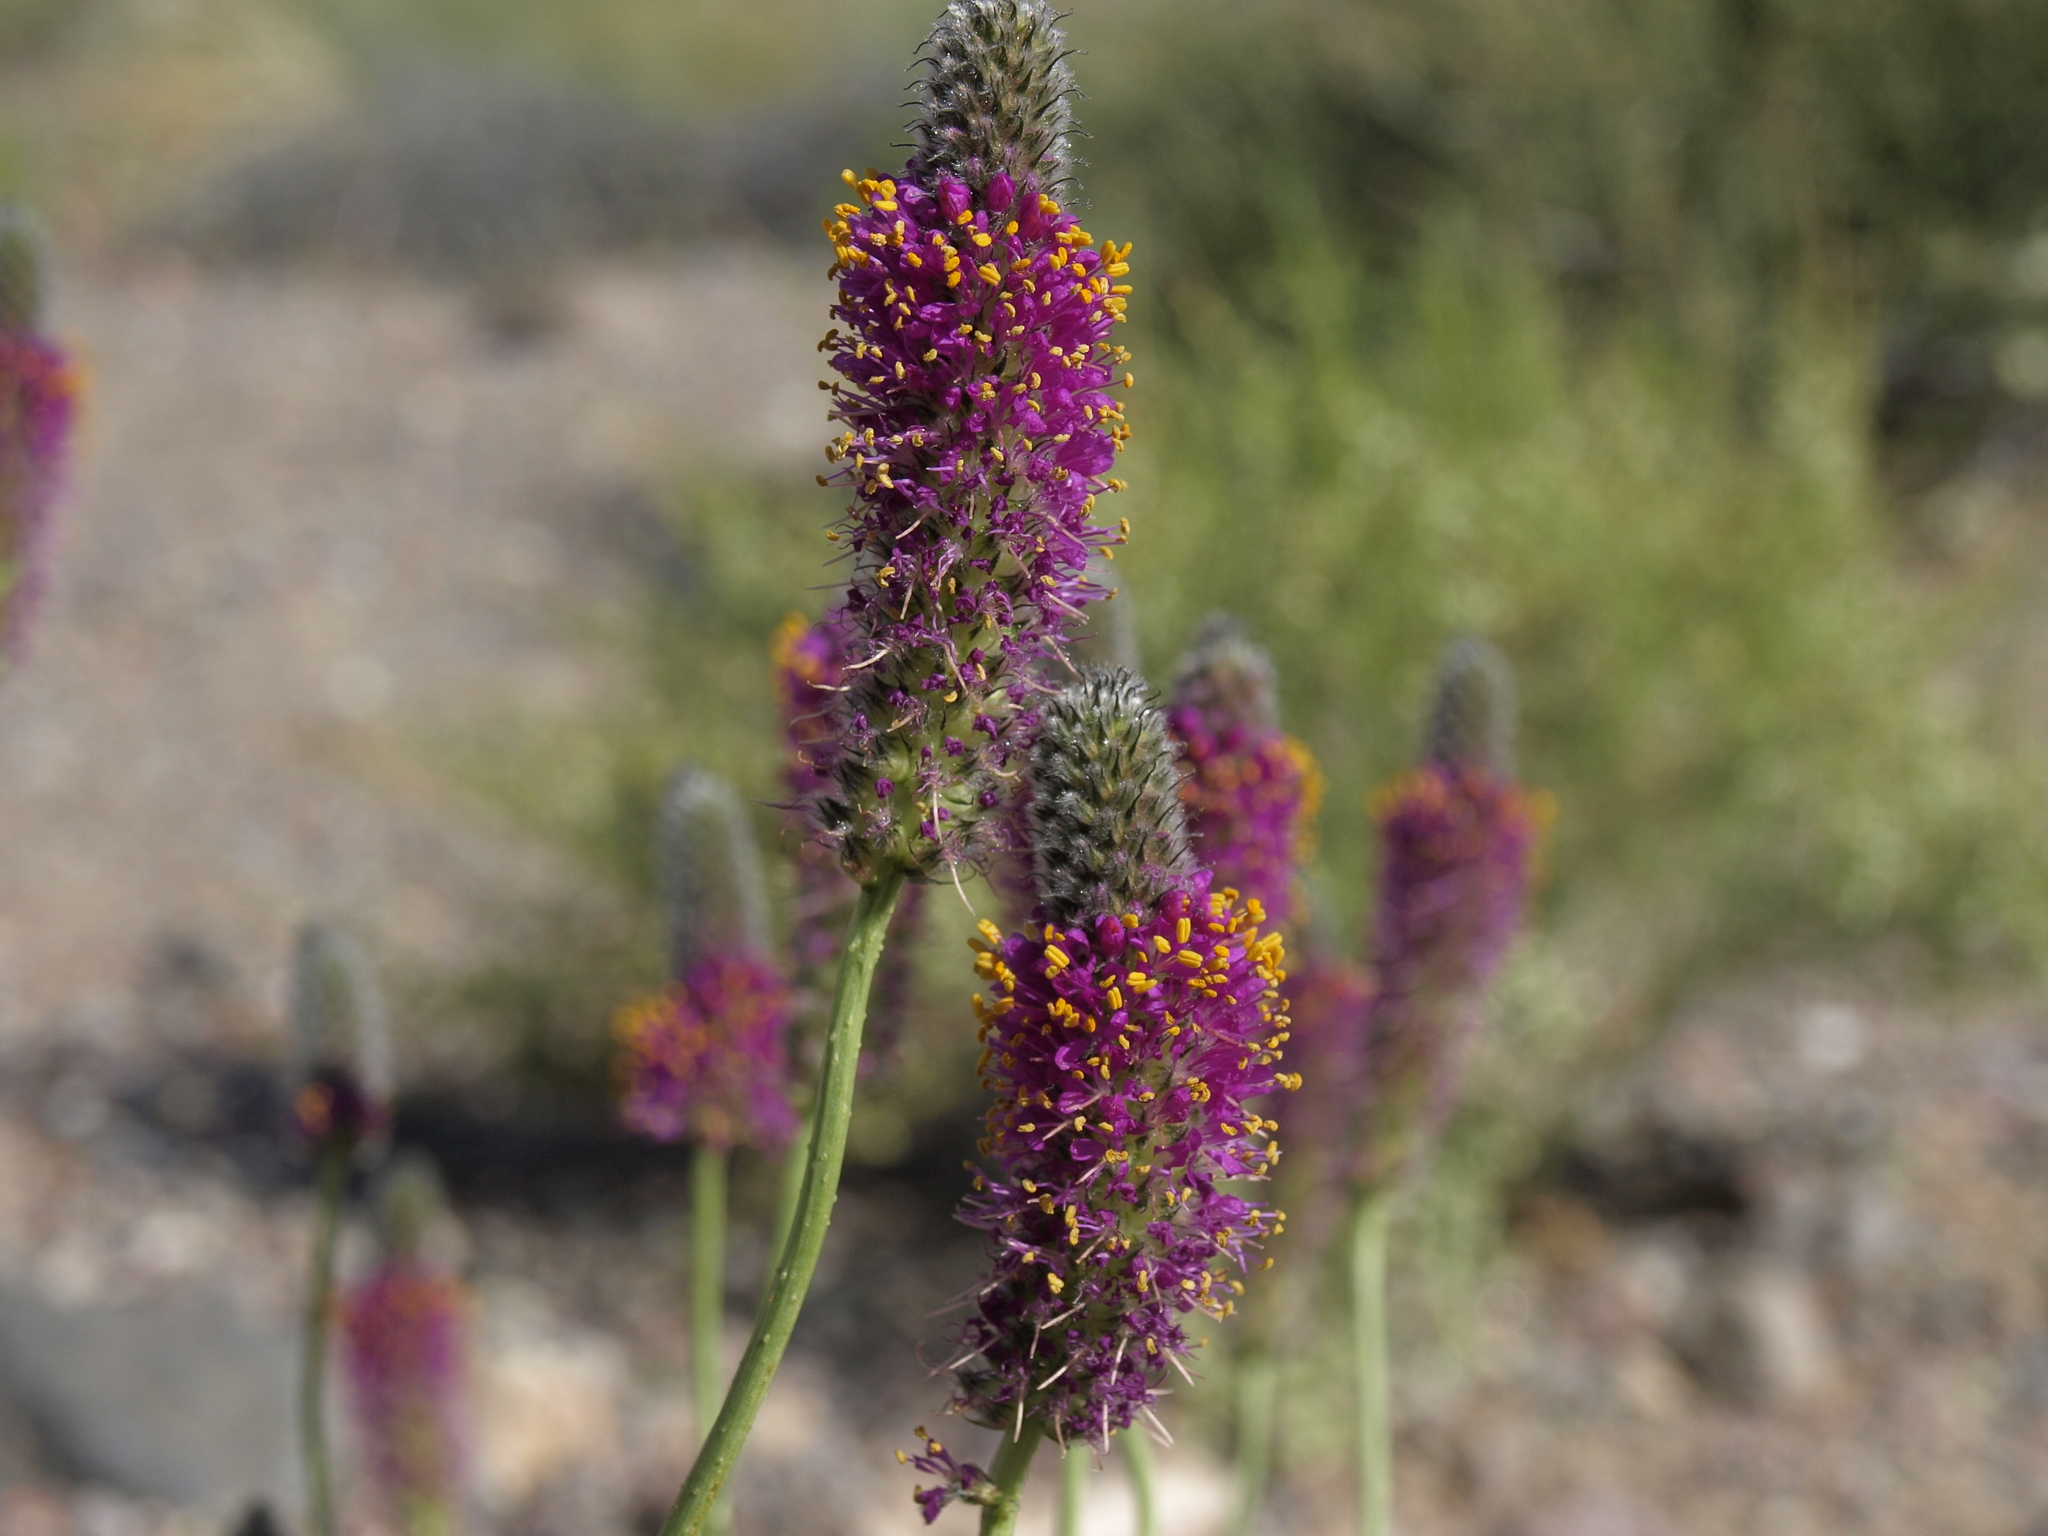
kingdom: Plantae
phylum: Tracheophyta
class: Magnoliopsida
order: Fabales
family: Fabaceae
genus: Dalea
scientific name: Dalea searlsiae
